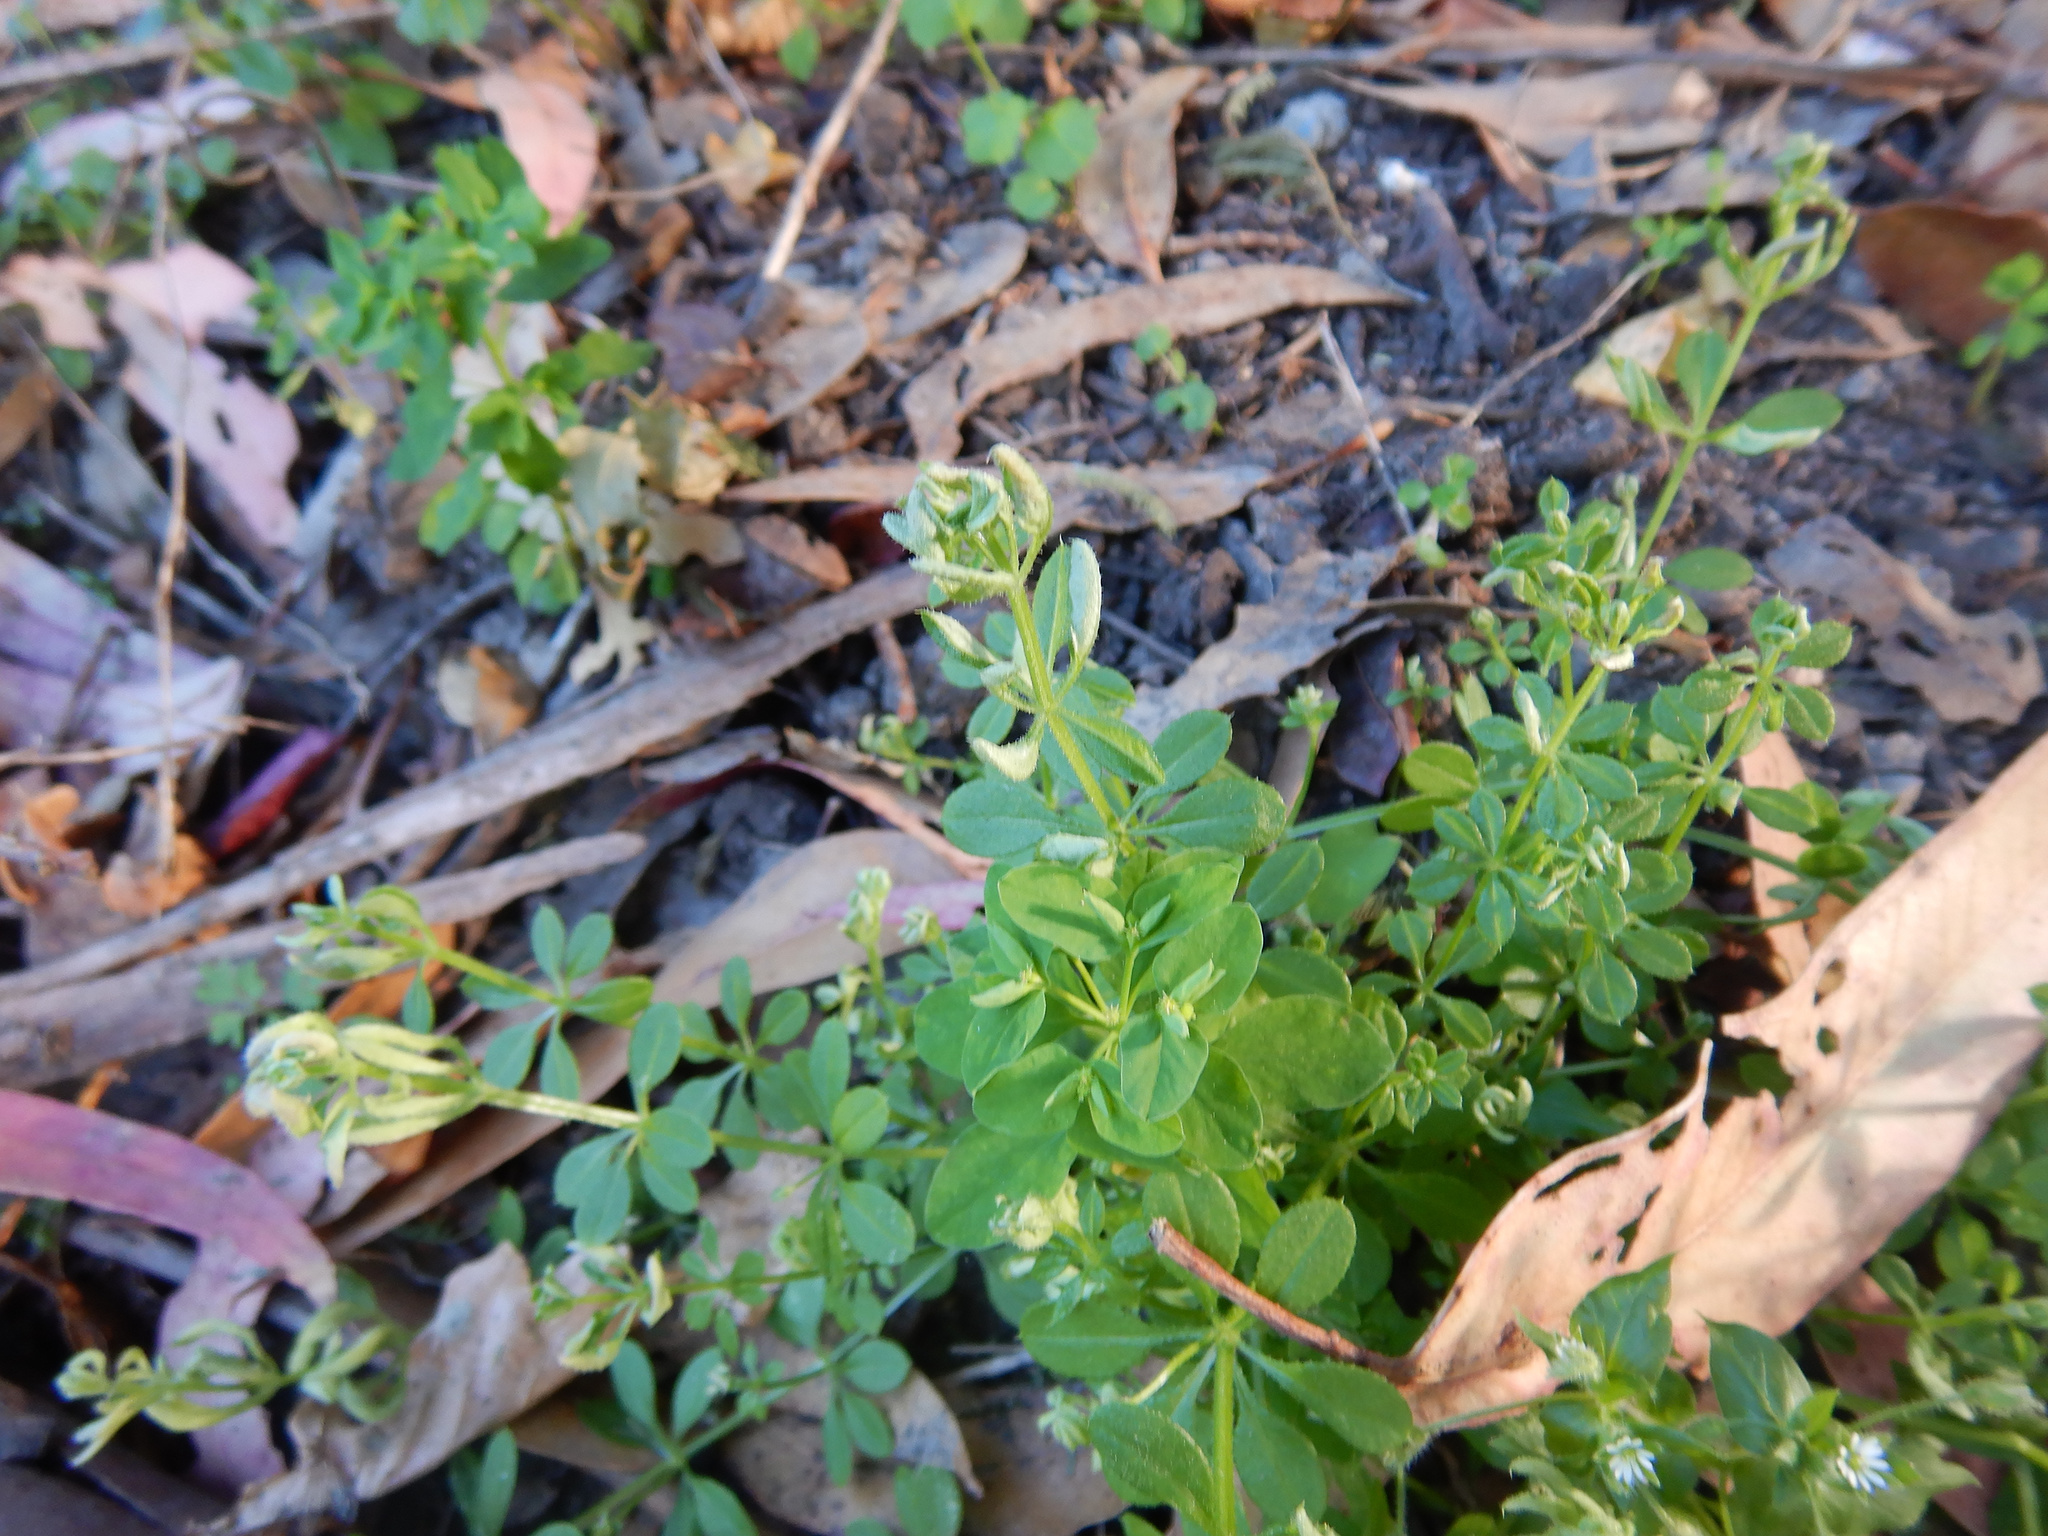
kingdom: Animalia
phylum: Arthropoda
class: Arachnida
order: Trombidiformes
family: Eriophyidae
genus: Cecidophyes
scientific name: Cecidophyes rouhollahi
